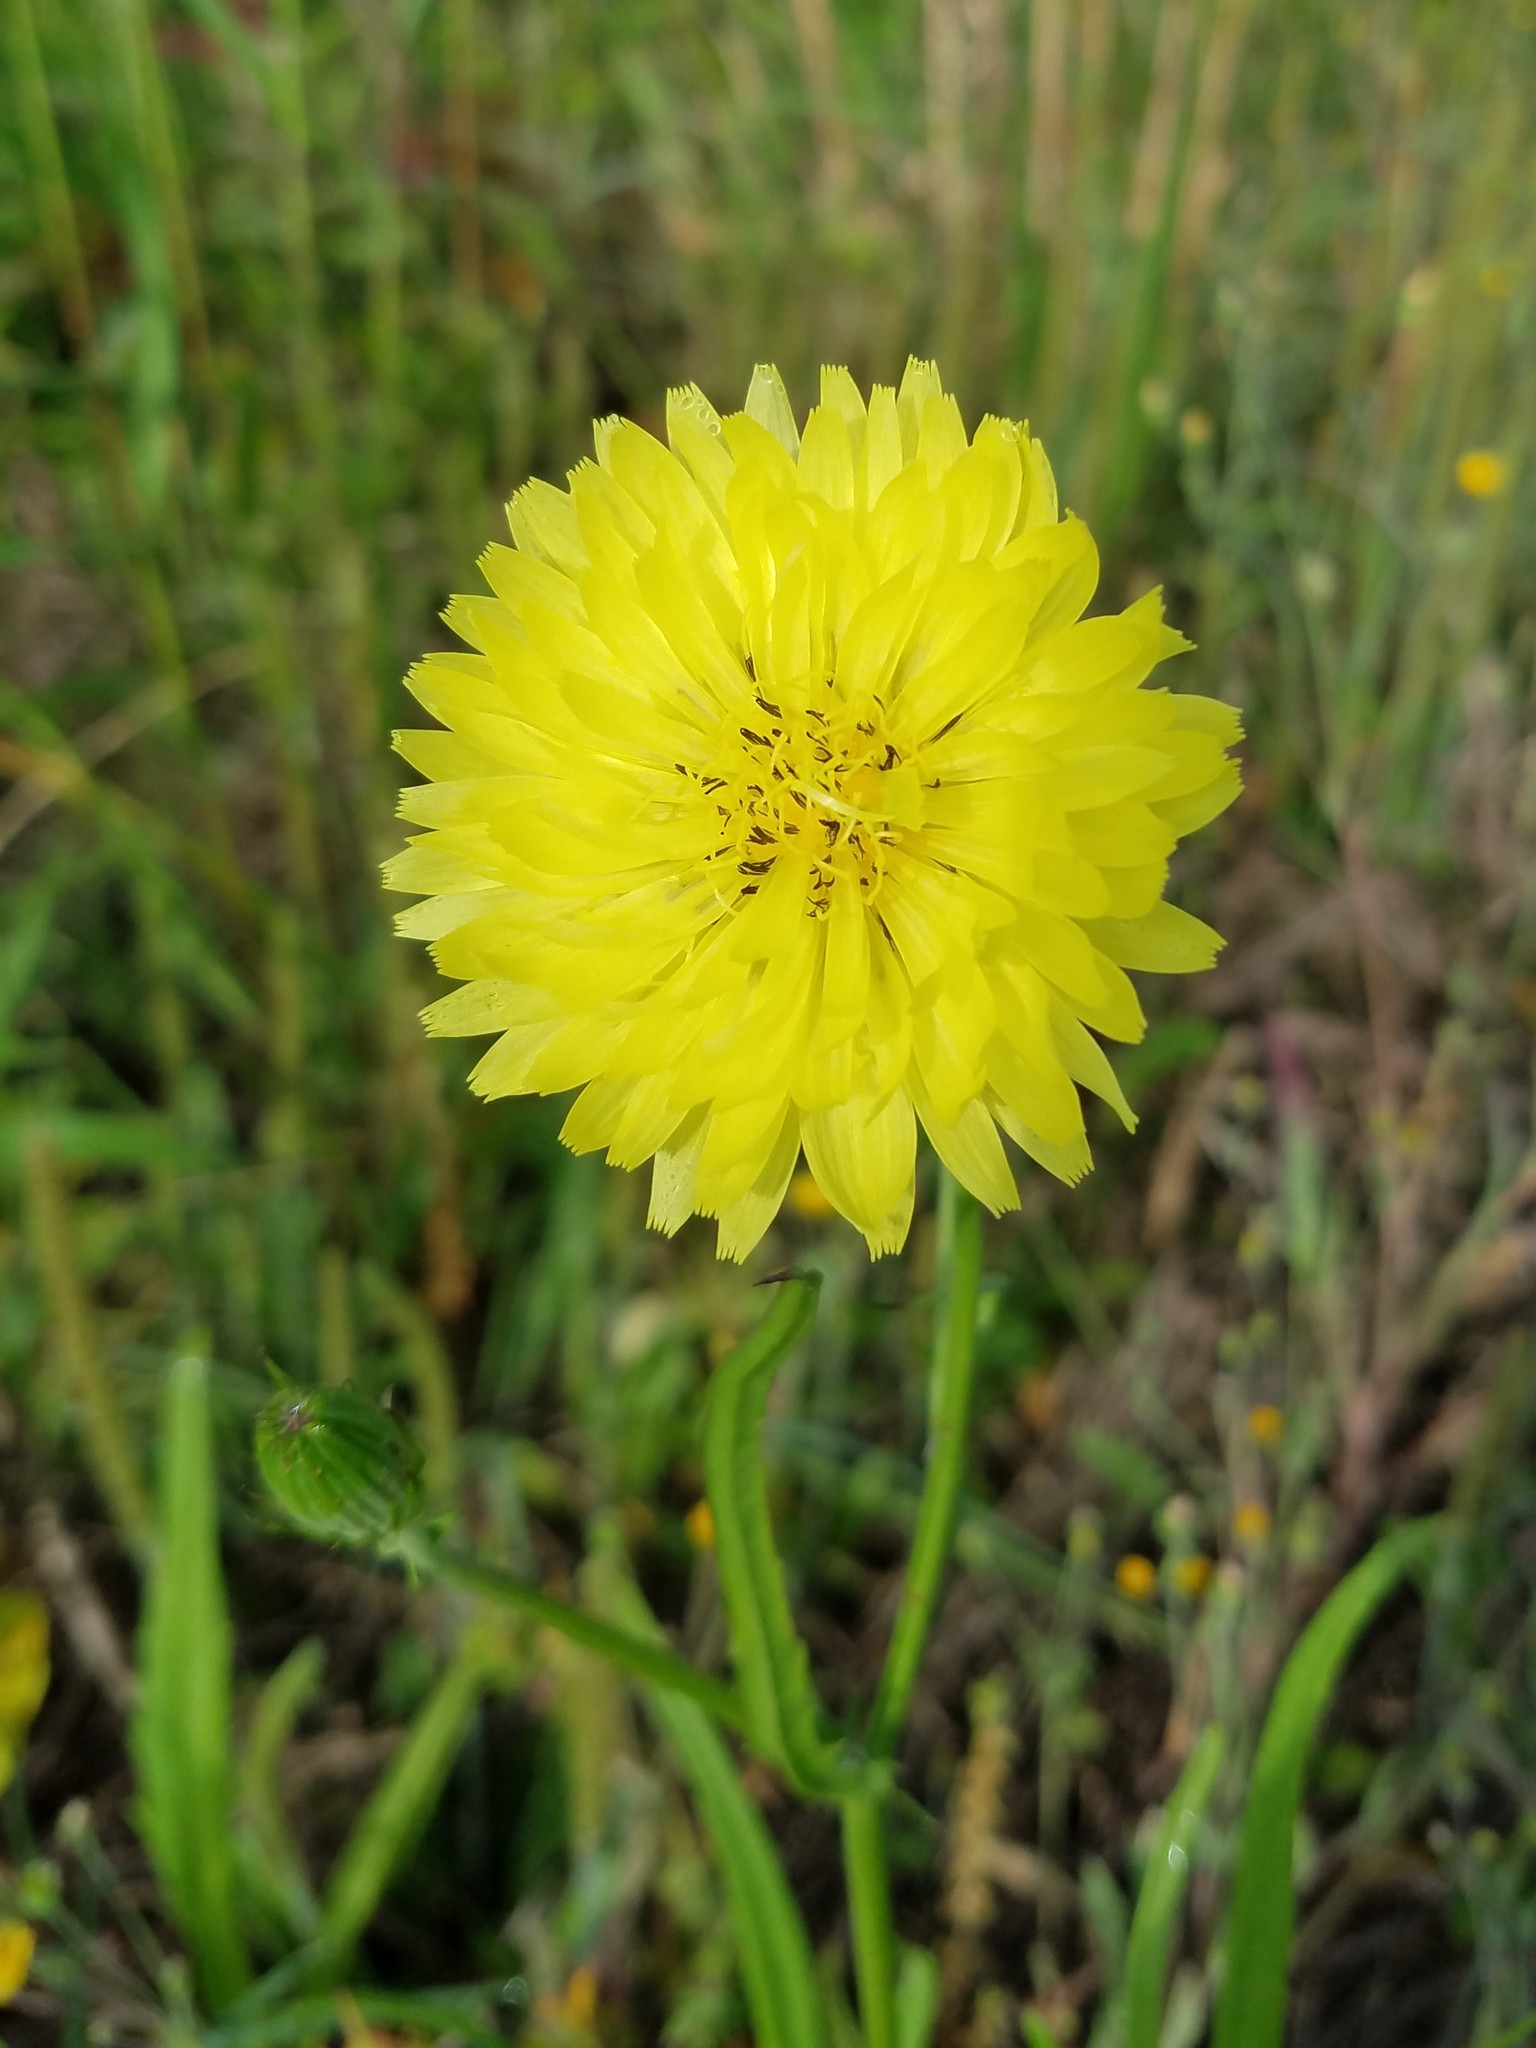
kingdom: Plantae
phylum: Tracheophyta
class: Magnoliopsida
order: Asterales
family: Asteraceae
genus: Pyrrhopappus
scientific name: Pyrrhopappus carolinianus
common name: Carolina desert-chicory
